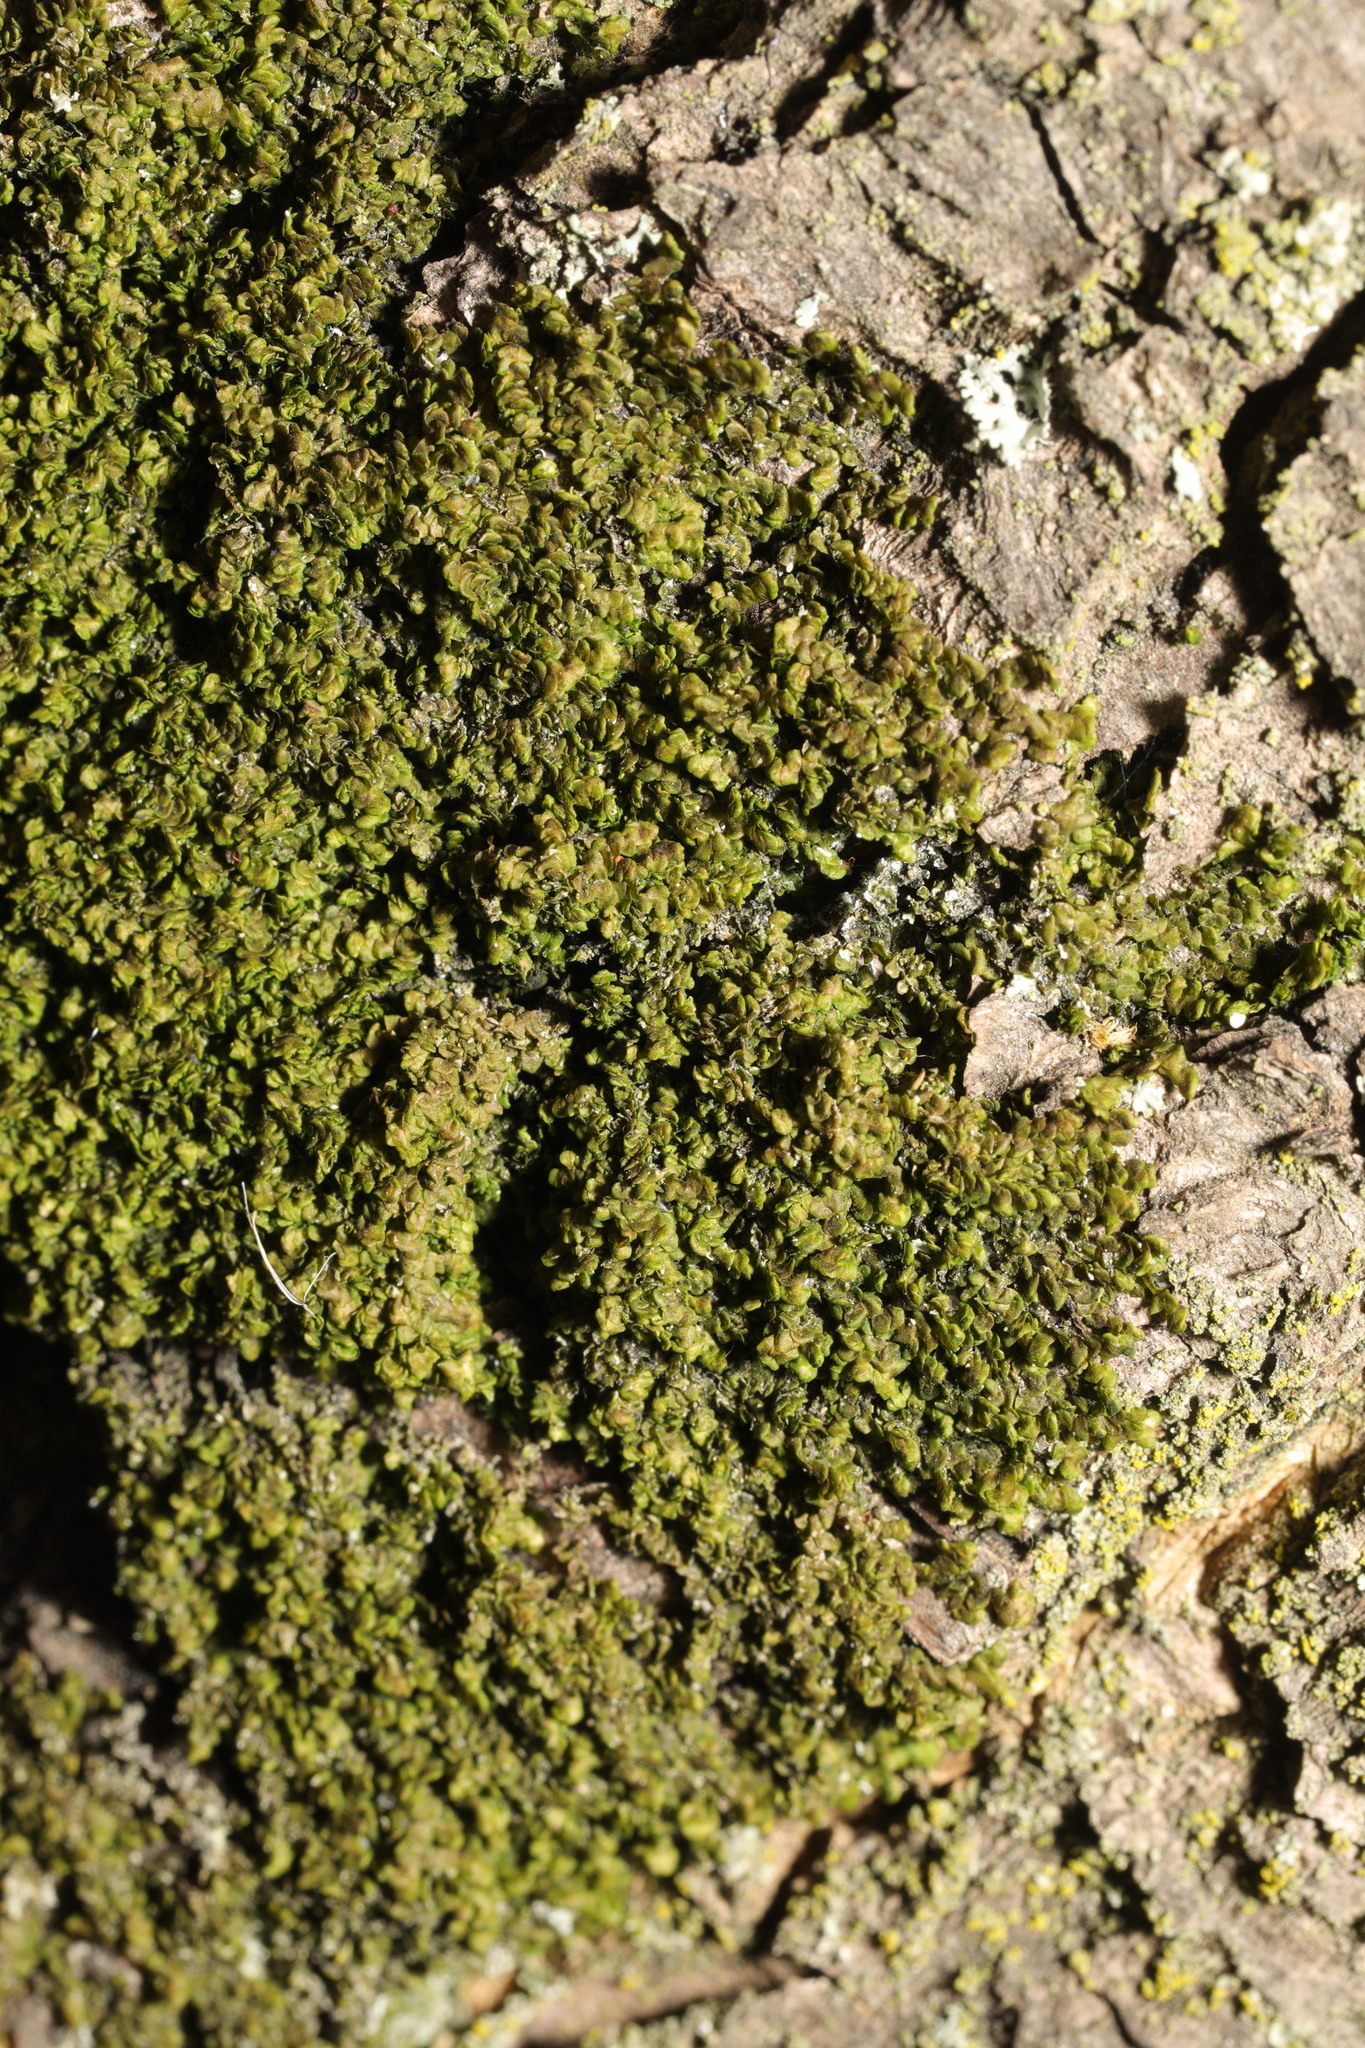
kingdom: Plantae
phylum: Marchantiophyta
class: Jungermanniopsida
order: Porellales
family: Frullaniaceae
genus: Frullania
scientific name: Frullania dilatata
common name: Dilated scalewort
